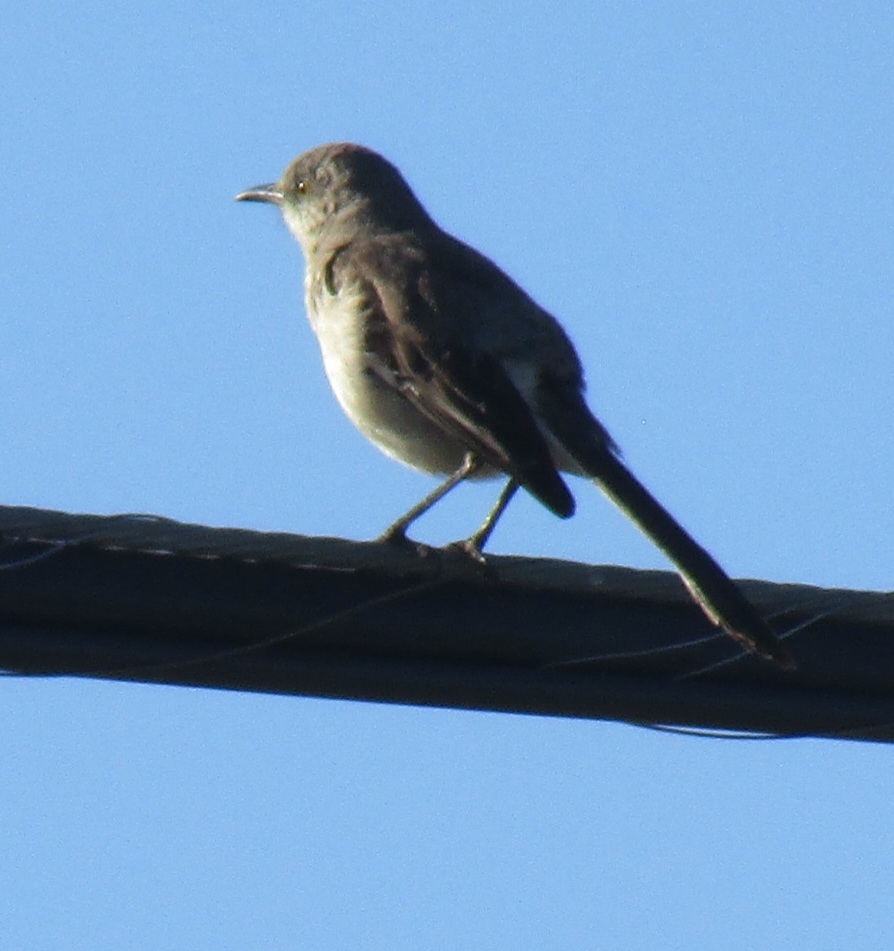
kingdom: Animalia
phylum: Chordata
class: Aves
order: Passeriformes
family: Mimidae
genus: Mimus
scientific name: Mimus polyglottos
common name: Northern mockingbird
